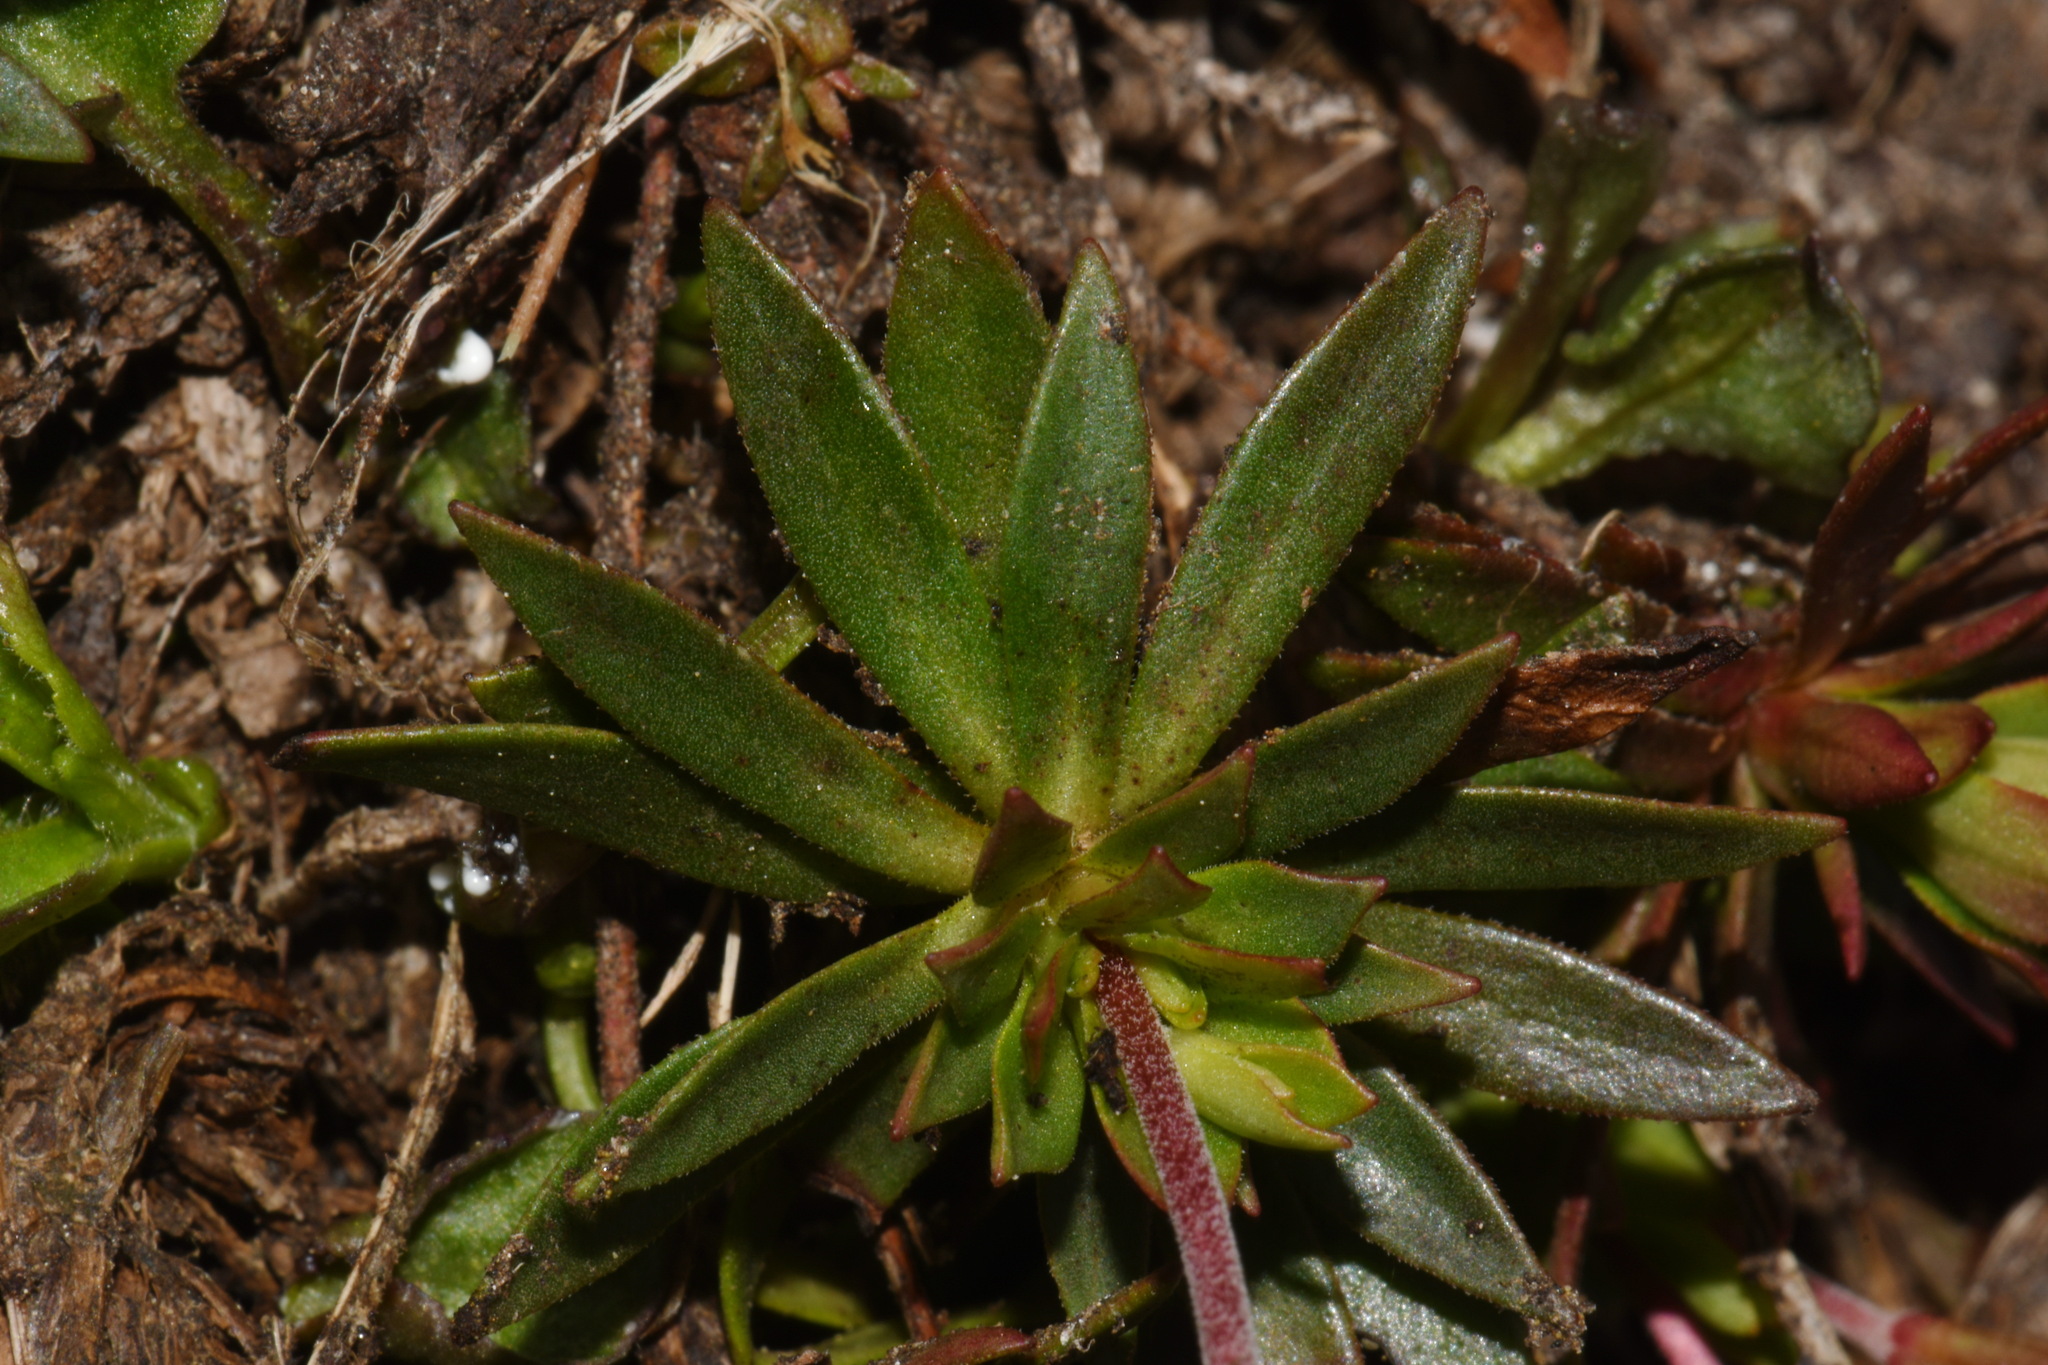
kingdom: Plantae
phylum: Tracheophyta
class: Magnoliopsida
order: Ericales
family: Primulaceae
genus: Androsace
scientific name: Androsace laevigata
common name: Cliff dwarf-primrose
